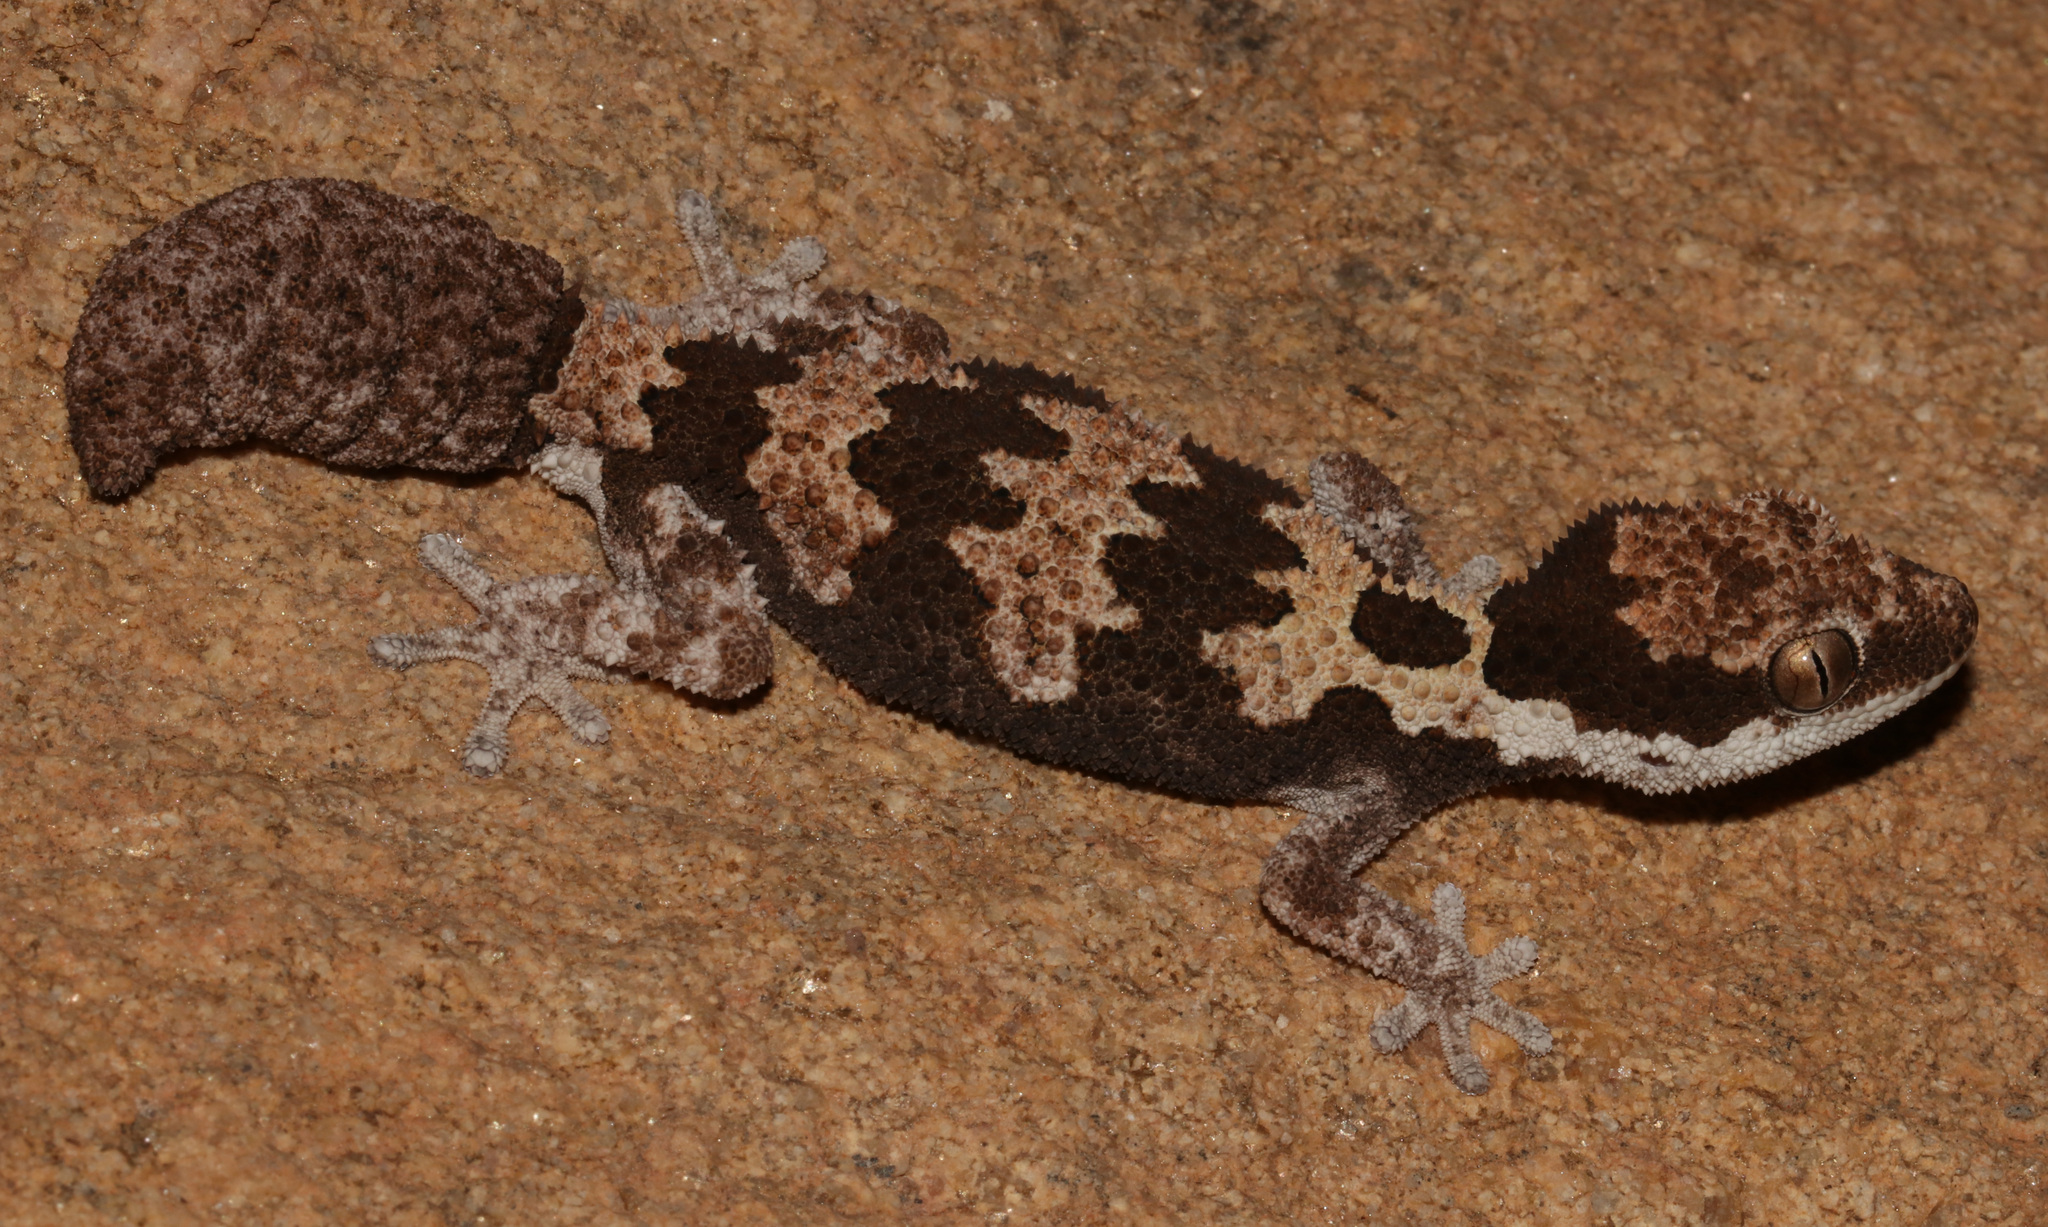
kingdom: Animalia
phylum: Chordata
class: Squamata
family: Gekkonidae
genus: Pachydactylus
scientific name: Pachydactylus rugosus
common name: Common rough gecko
